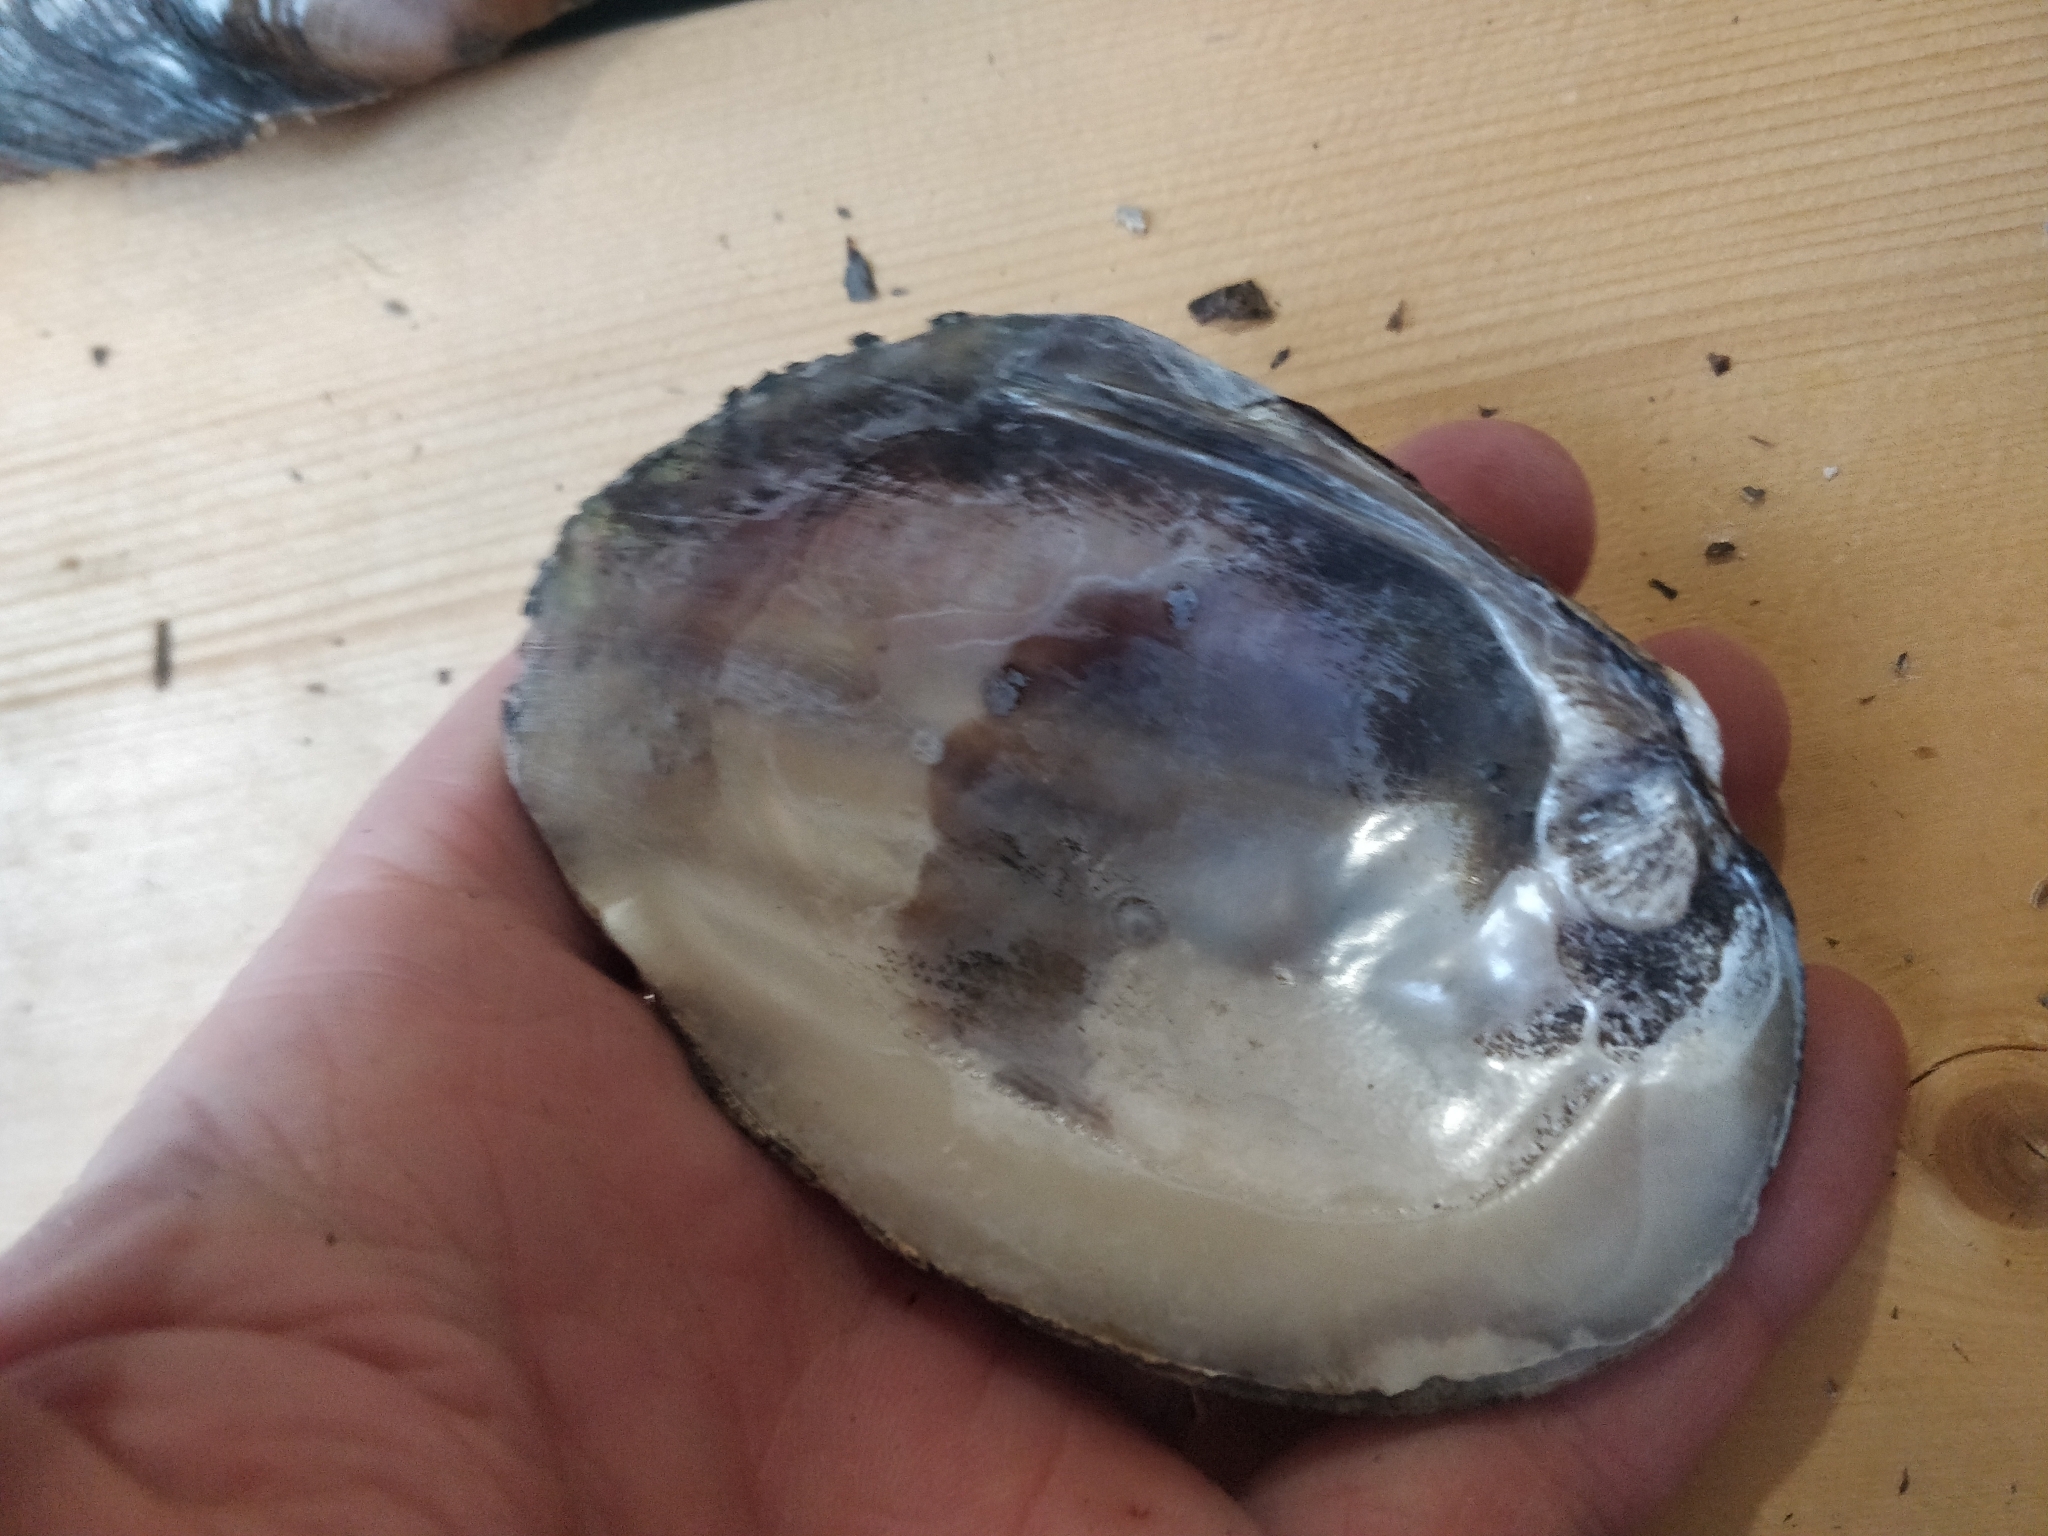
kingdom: Animalia
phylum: Mollusca
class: Bivalvia
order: Unionida
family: Unionidae
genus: Amblema
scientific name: Amblema plicata
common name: Threeridge
